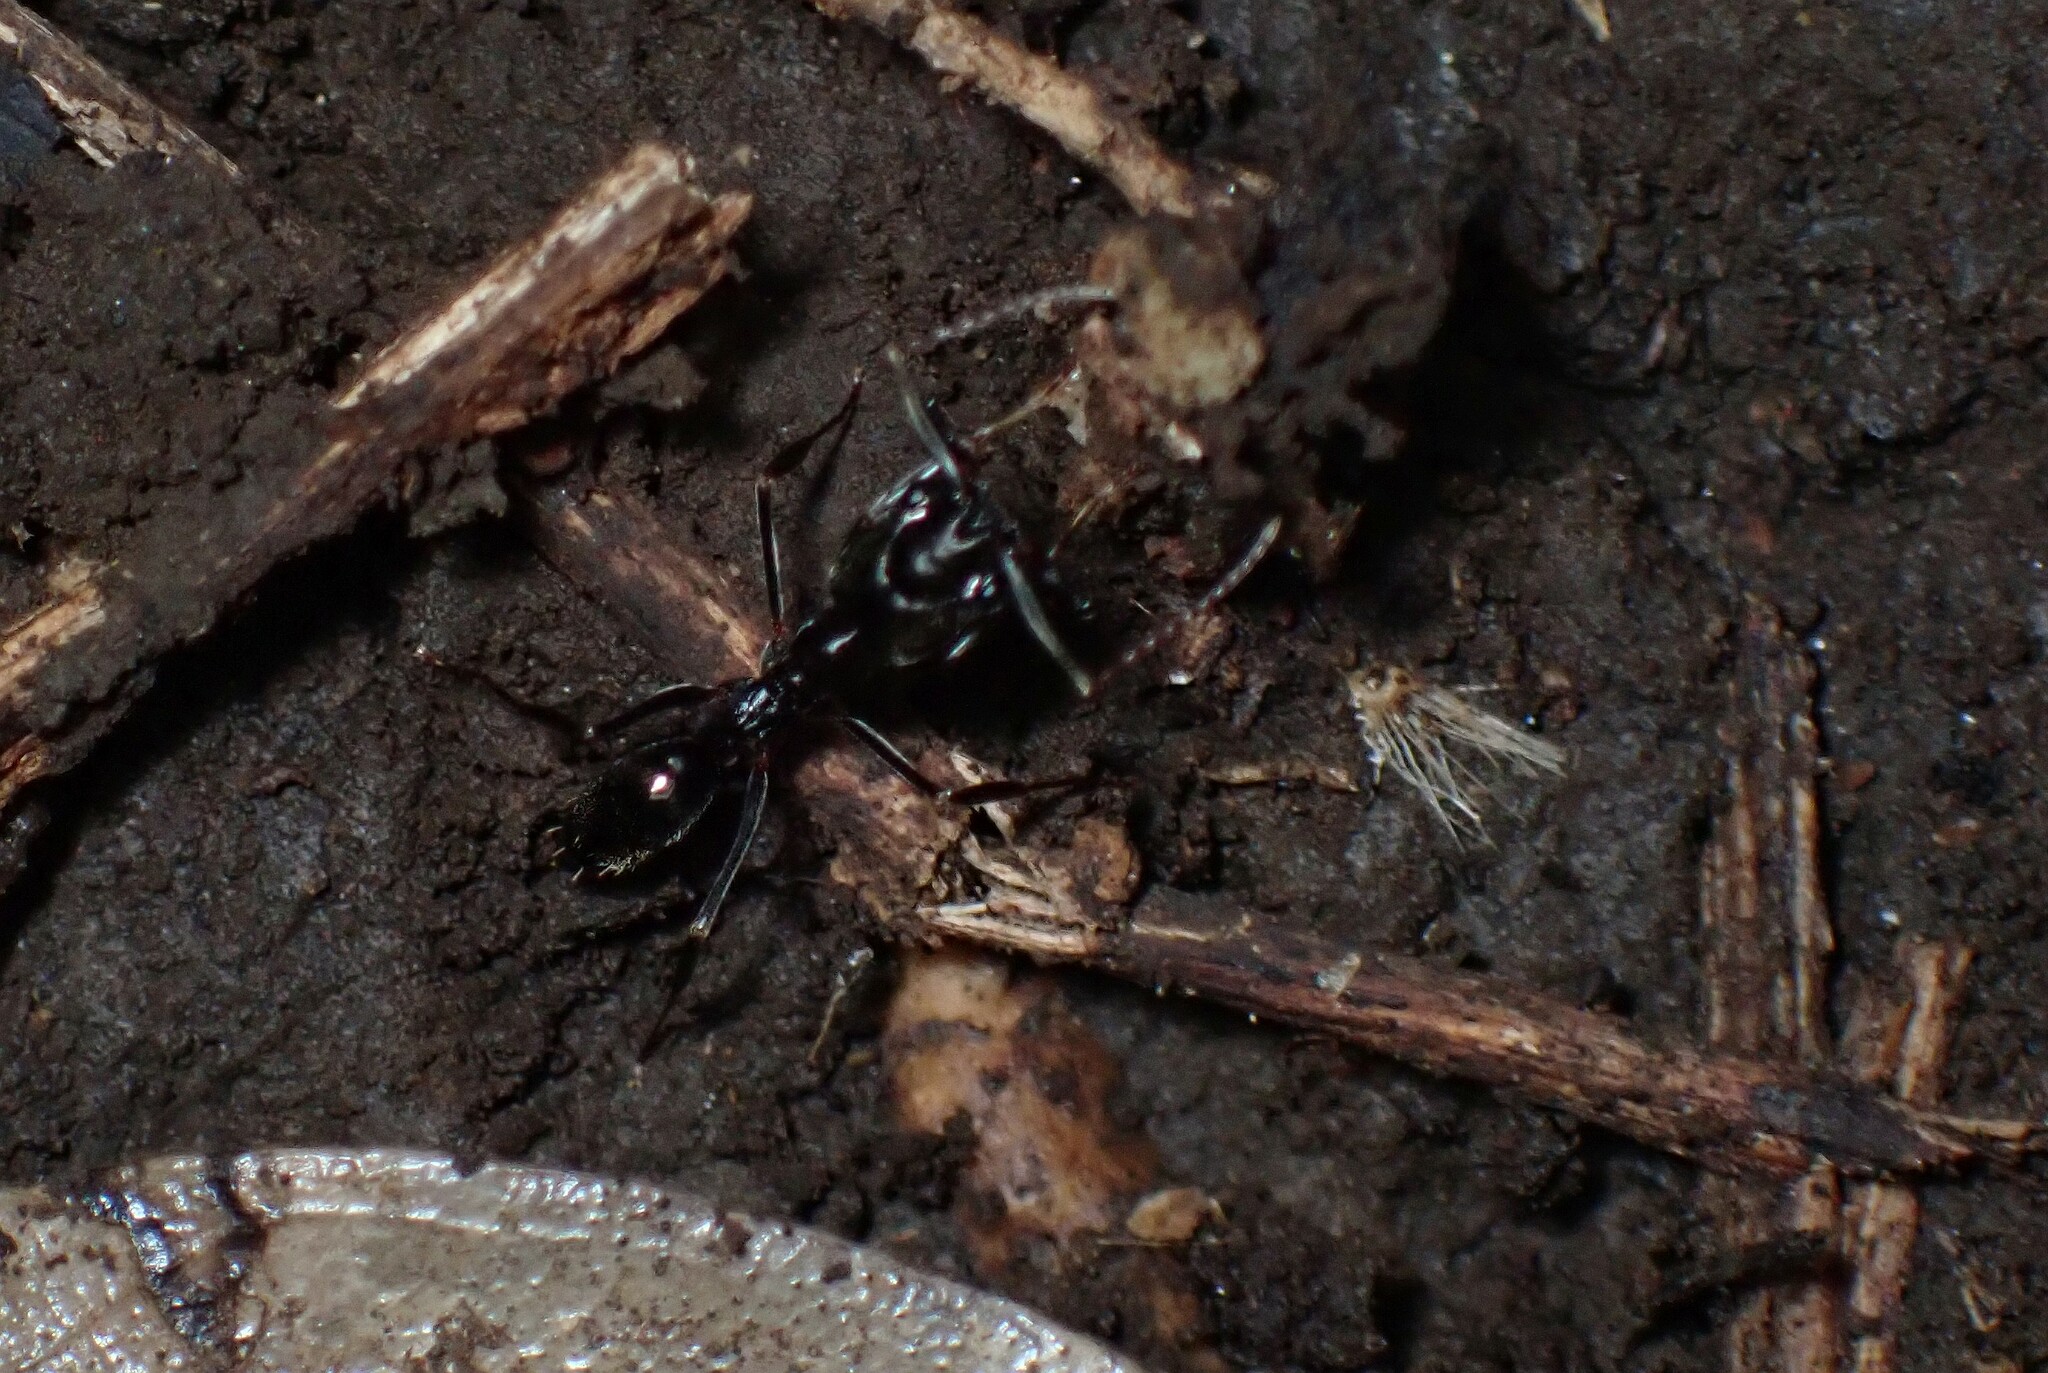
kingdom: Animalia
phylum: Arthropoda
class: Insecta
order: Hymenoptera
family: Formicidae
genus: Odontomachus
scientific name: Odontomachus simillimus
